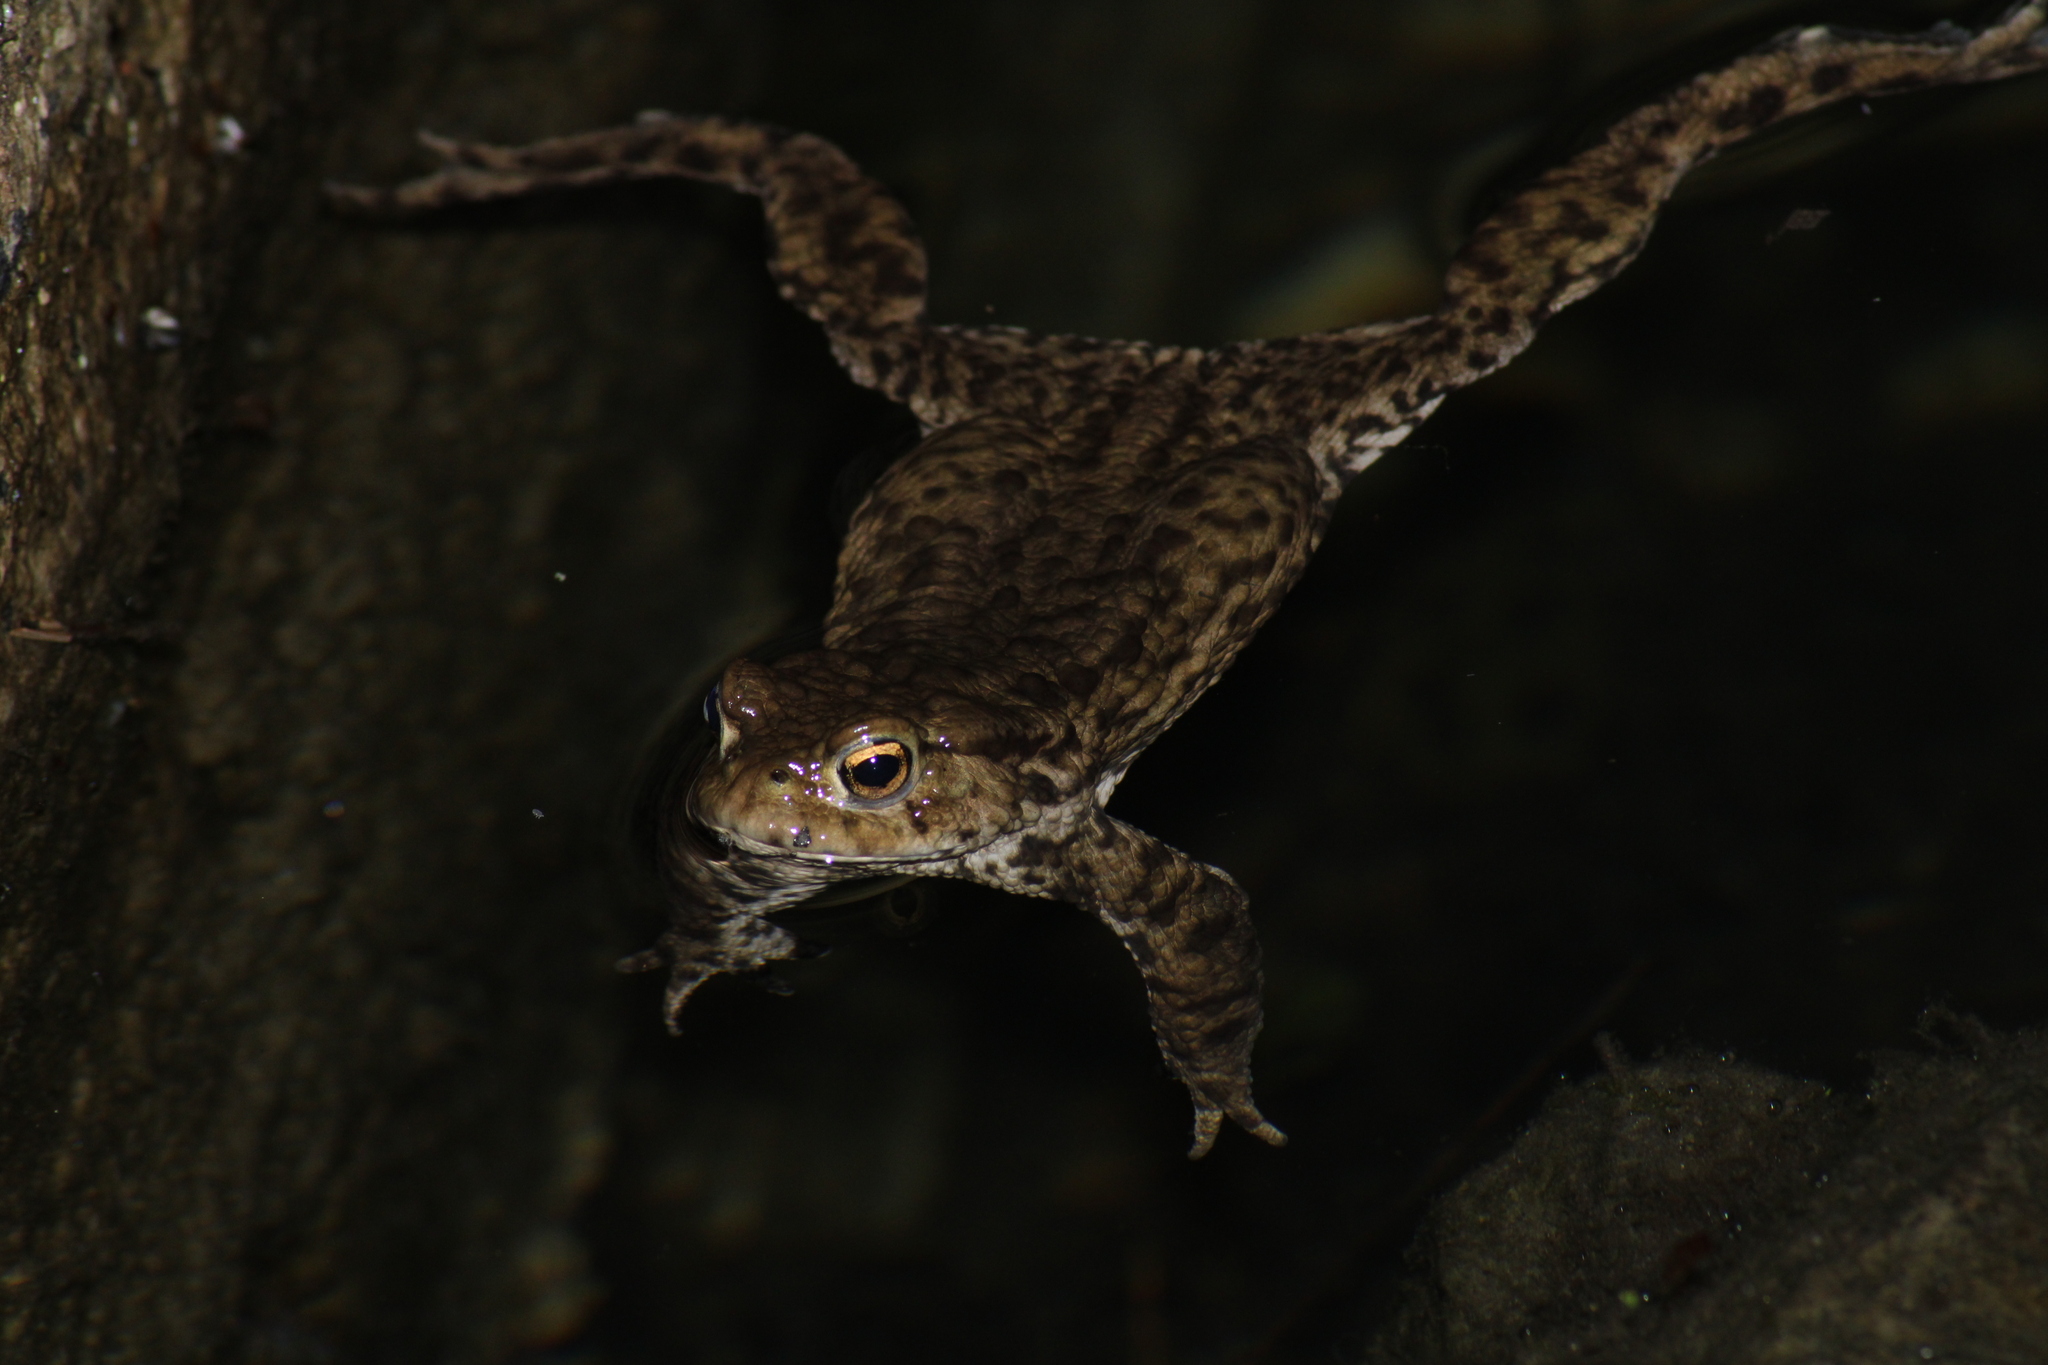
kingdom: Animalia
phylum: Chordata
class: Amphibia
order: Anura
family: Bufonidae
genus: Bufo
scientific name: Bufo bufo
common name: Common toad
